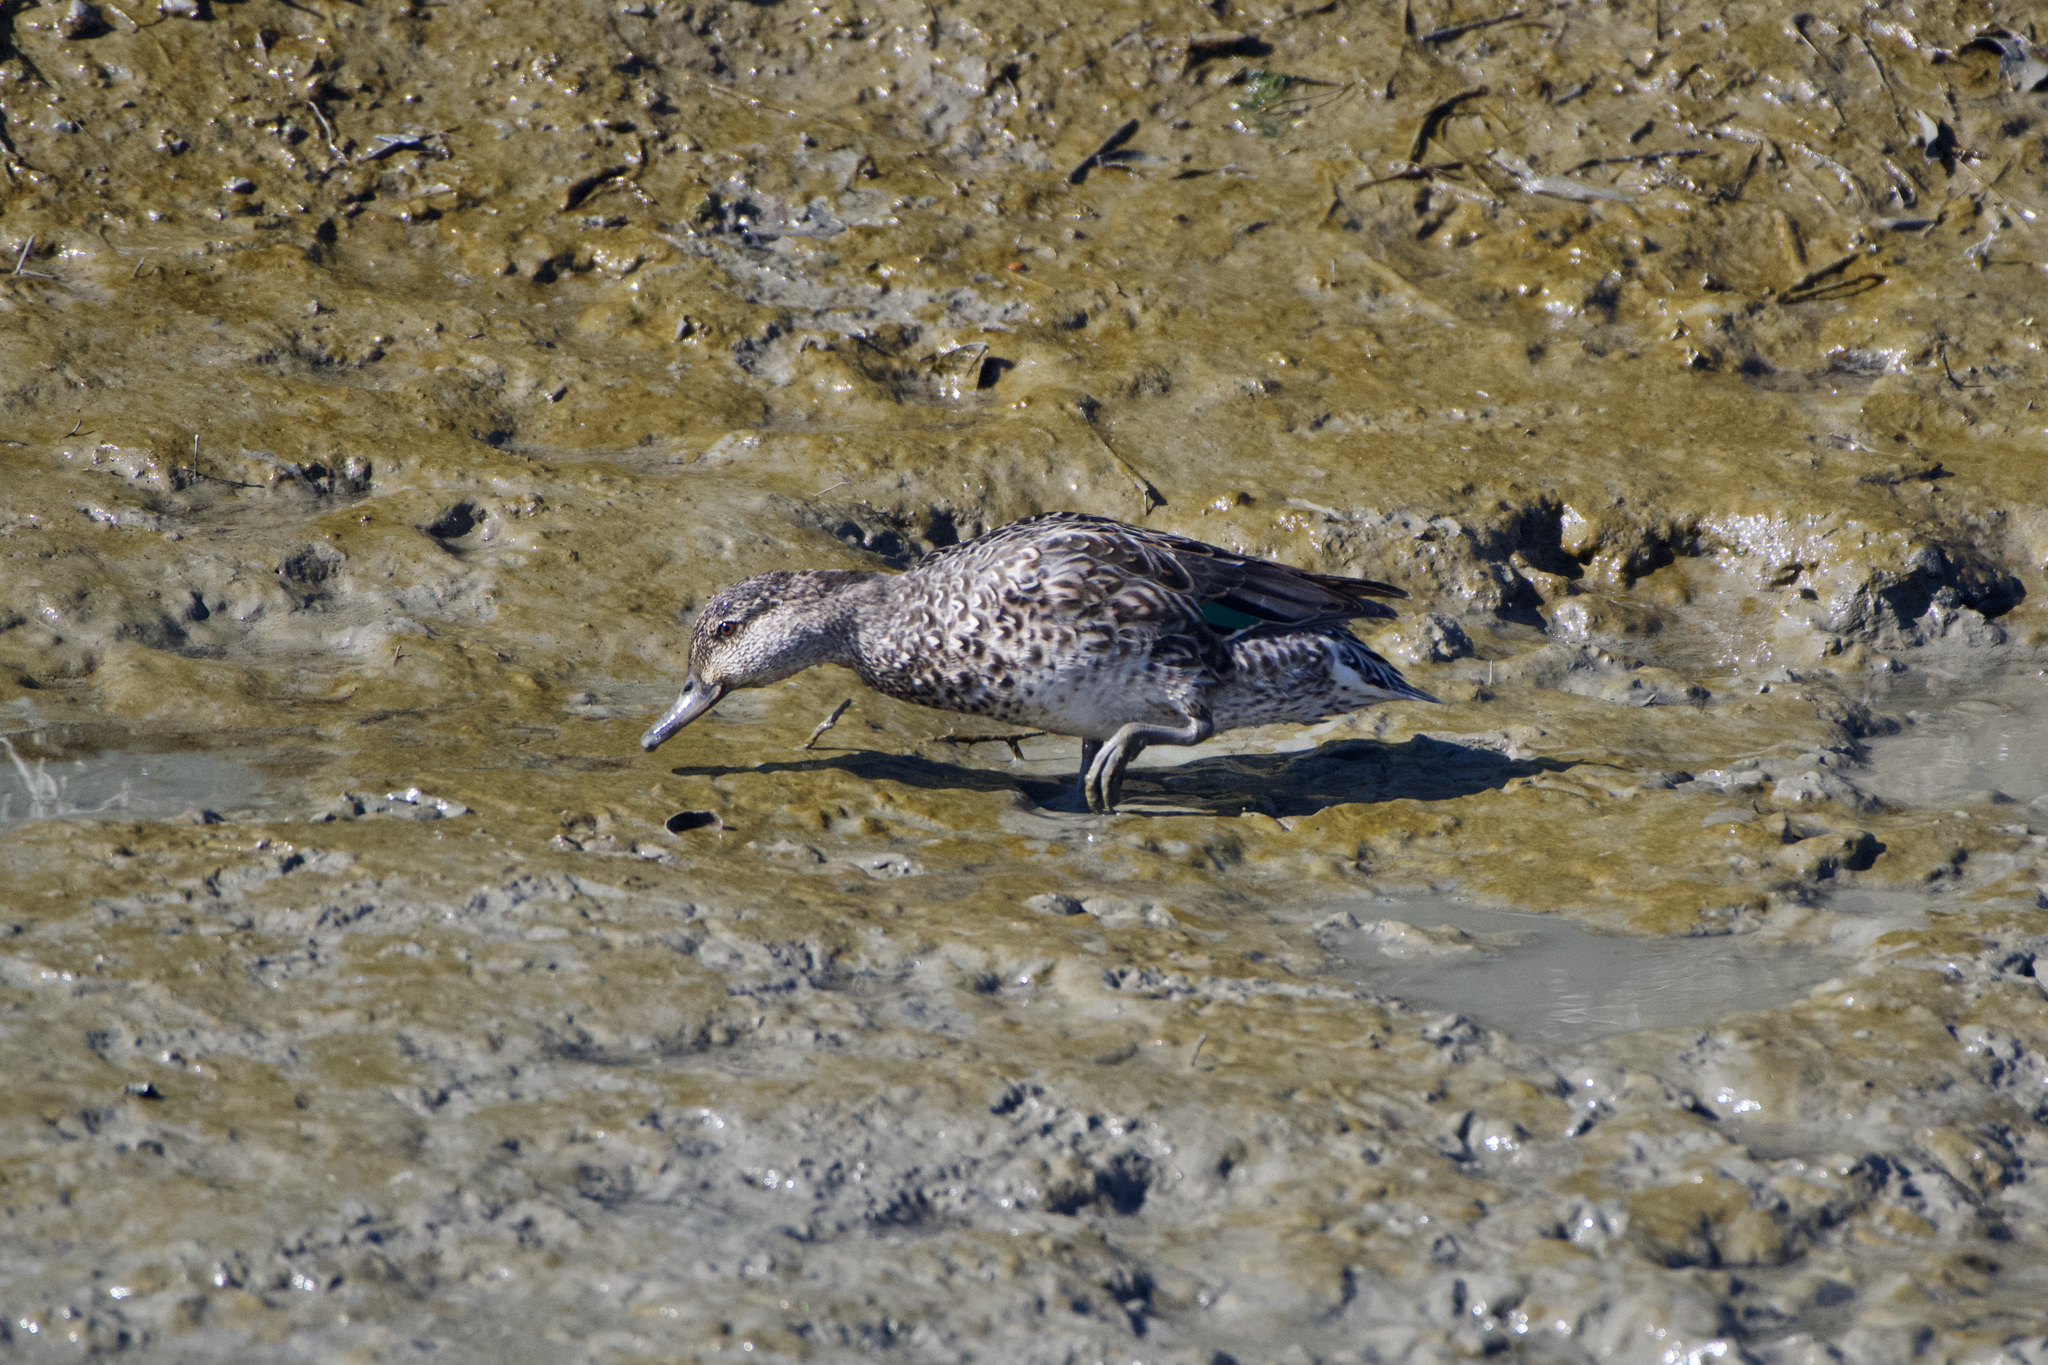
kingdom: Animalia
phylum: Chordata
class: Aves
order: Anseriformes
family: Anatidae
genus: Anas
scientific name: Anas crecca
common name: Eurasian teal
